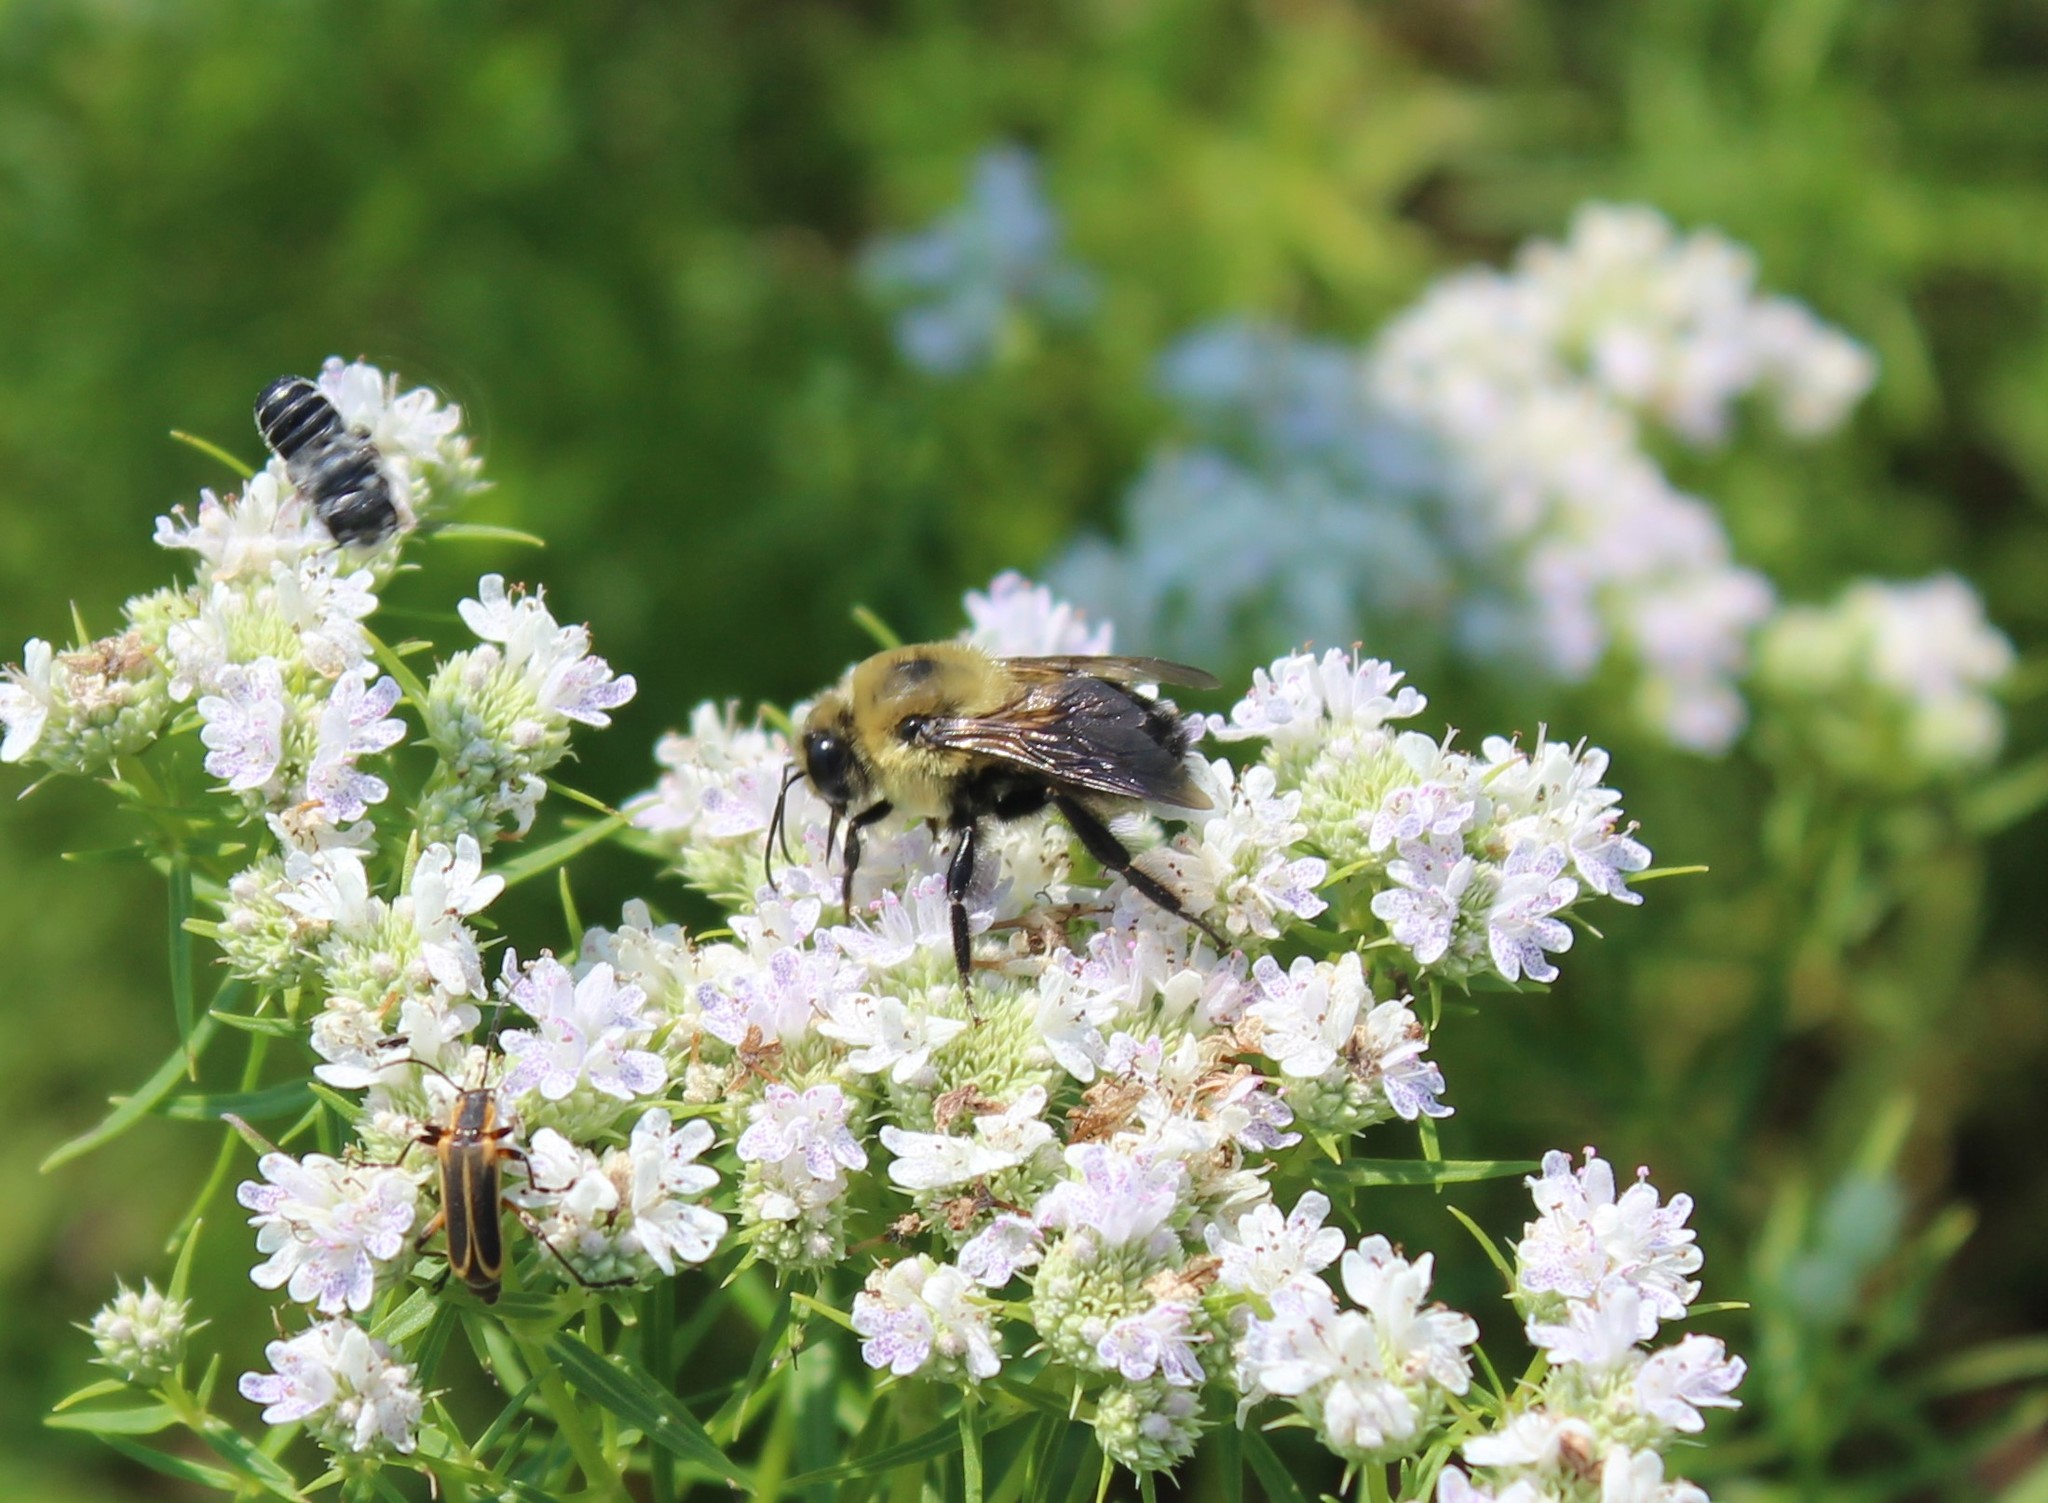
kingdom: Animalia
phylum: Arthropoda
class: Insecta
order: Hymenoptera
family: Apidae
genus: Bombus
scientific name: Bombus griseocollis
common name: Brown-belted bumble bee
